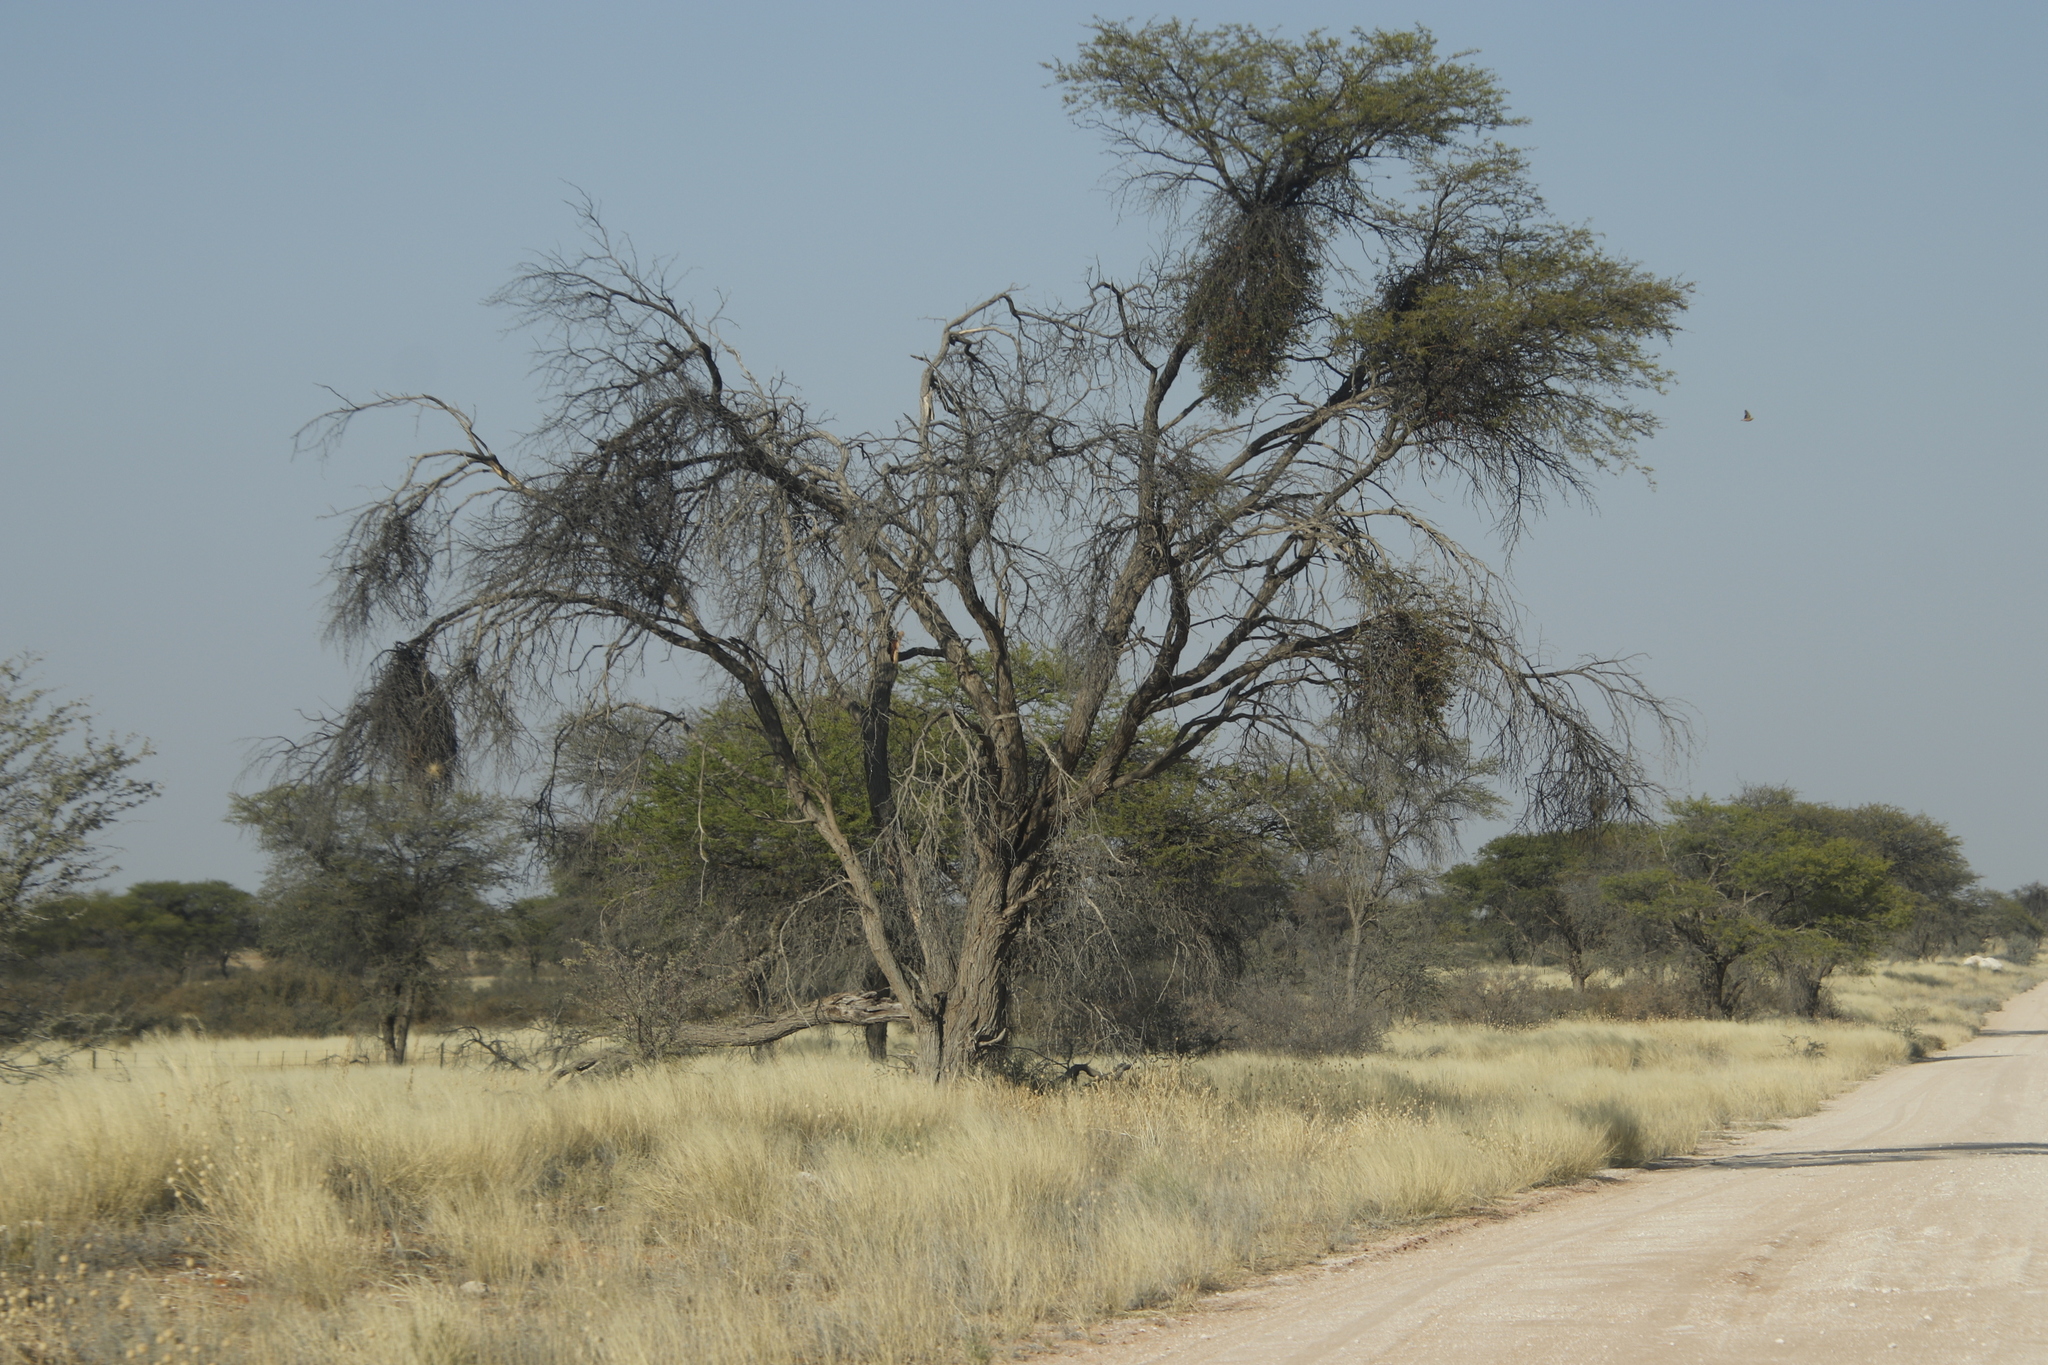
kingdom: Plantae
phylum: Tracheophyta
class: Magnoliopsida
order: Fabales
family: Fabaceae
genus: Vachellia
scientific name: Vachellia erioloba
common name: Camel thorn
